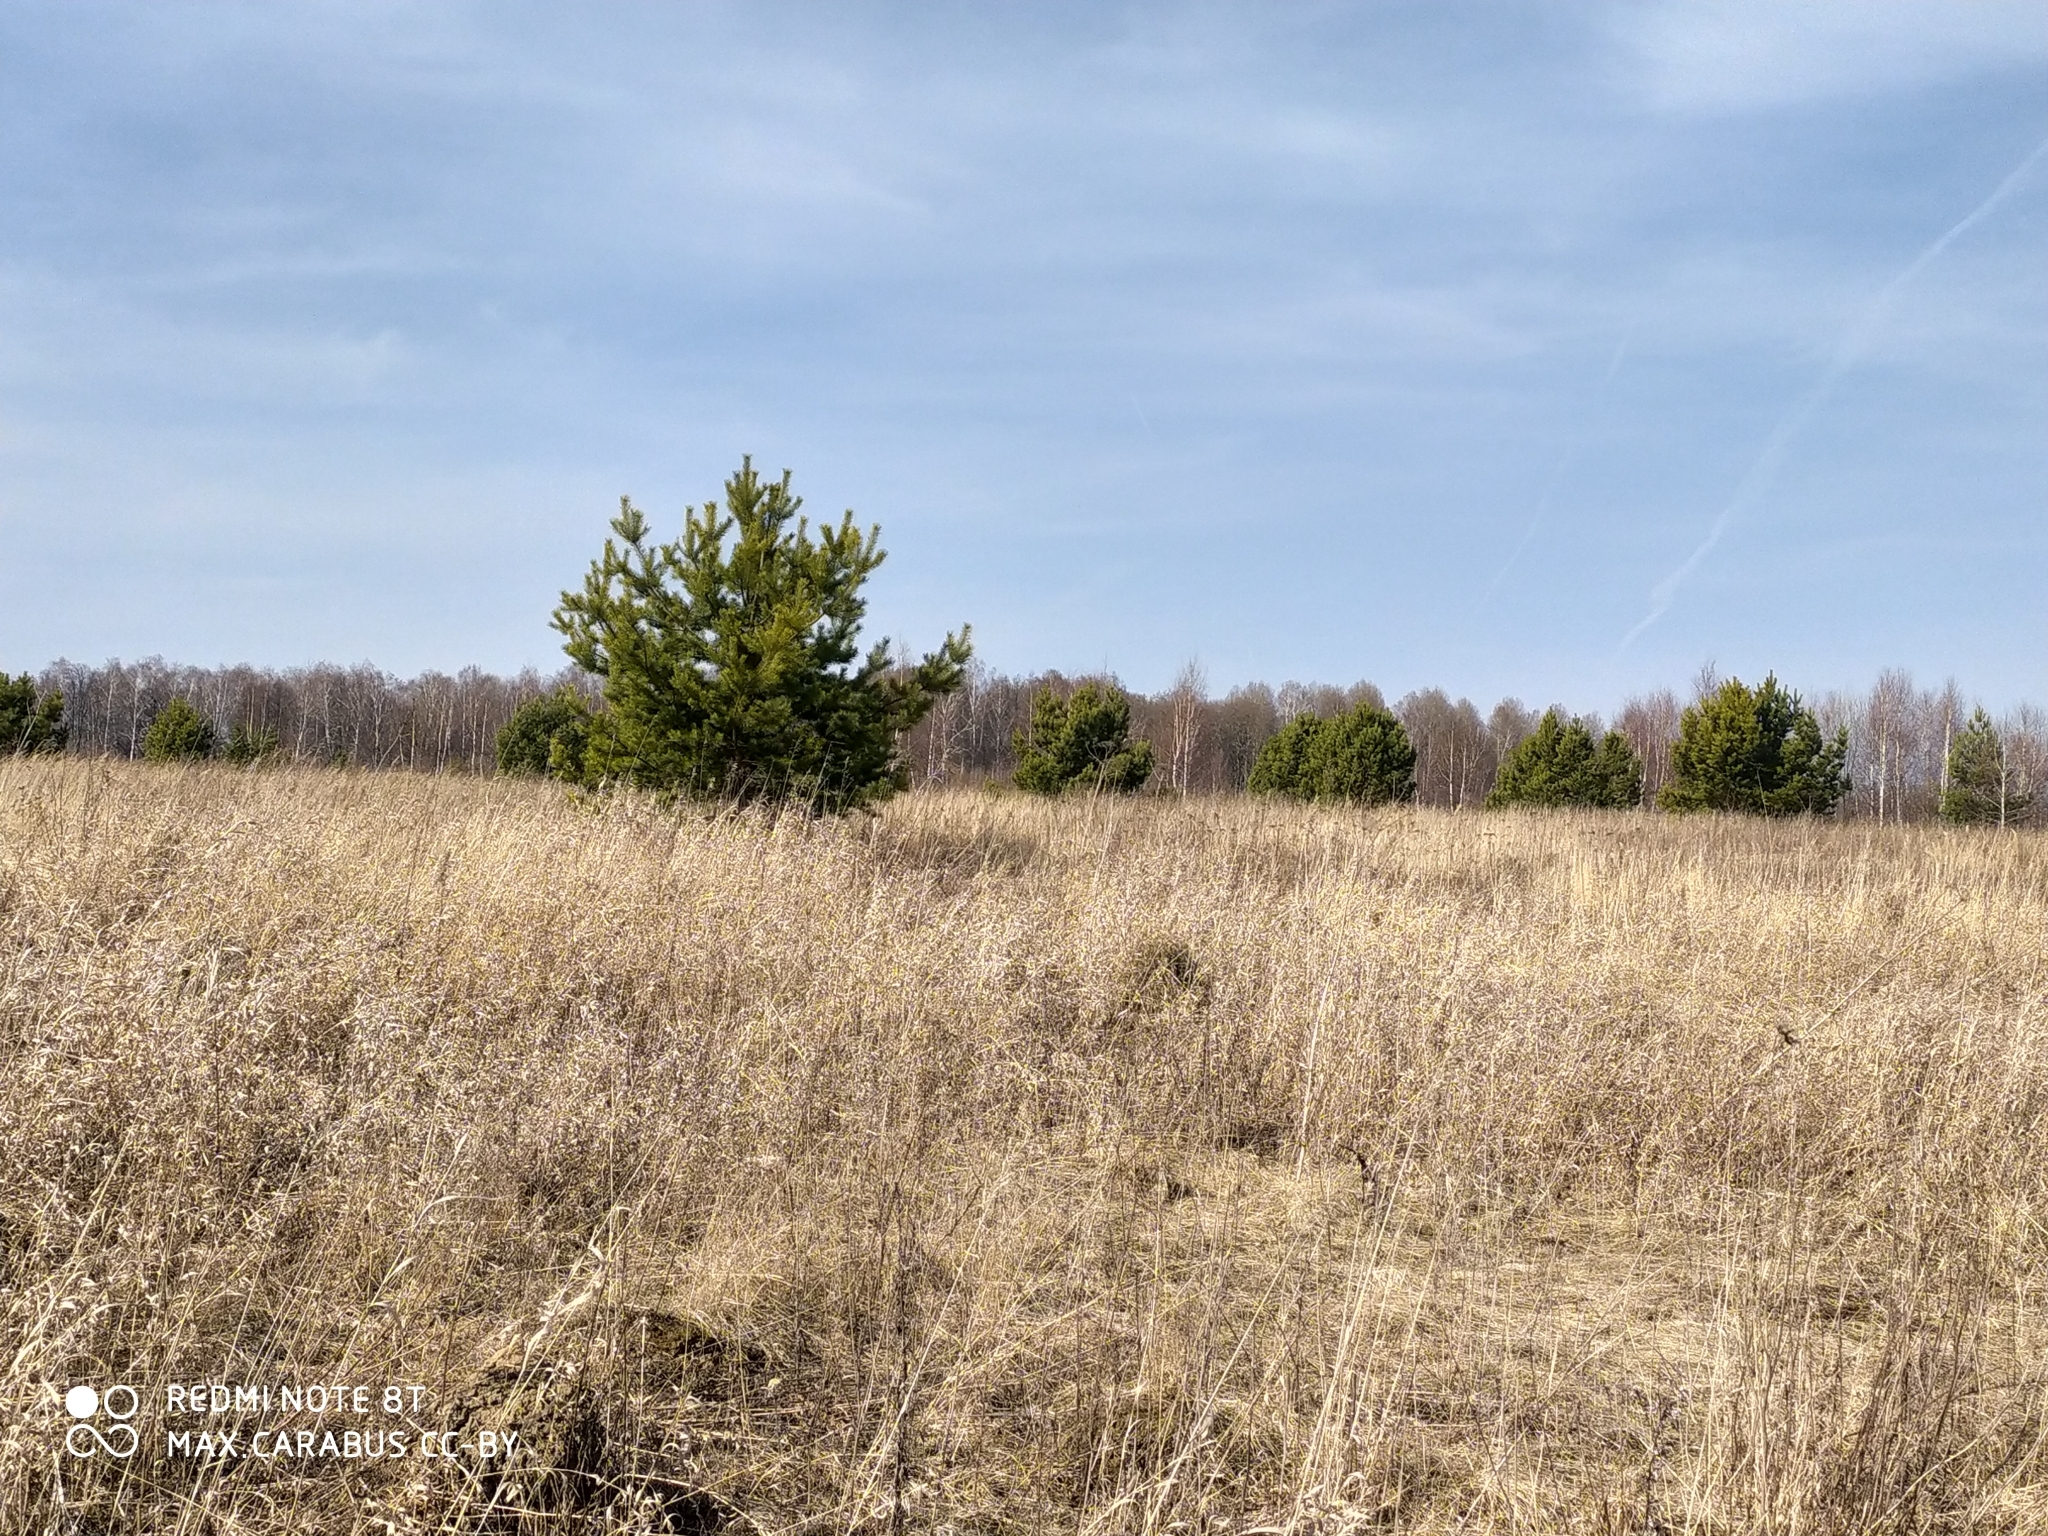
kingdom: Plantae
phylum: Tracheophyta
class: Pinopsida
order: Pinales
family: Pinaceae
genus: Pinus
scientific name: Pinus sylvestris
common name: Scots pine
